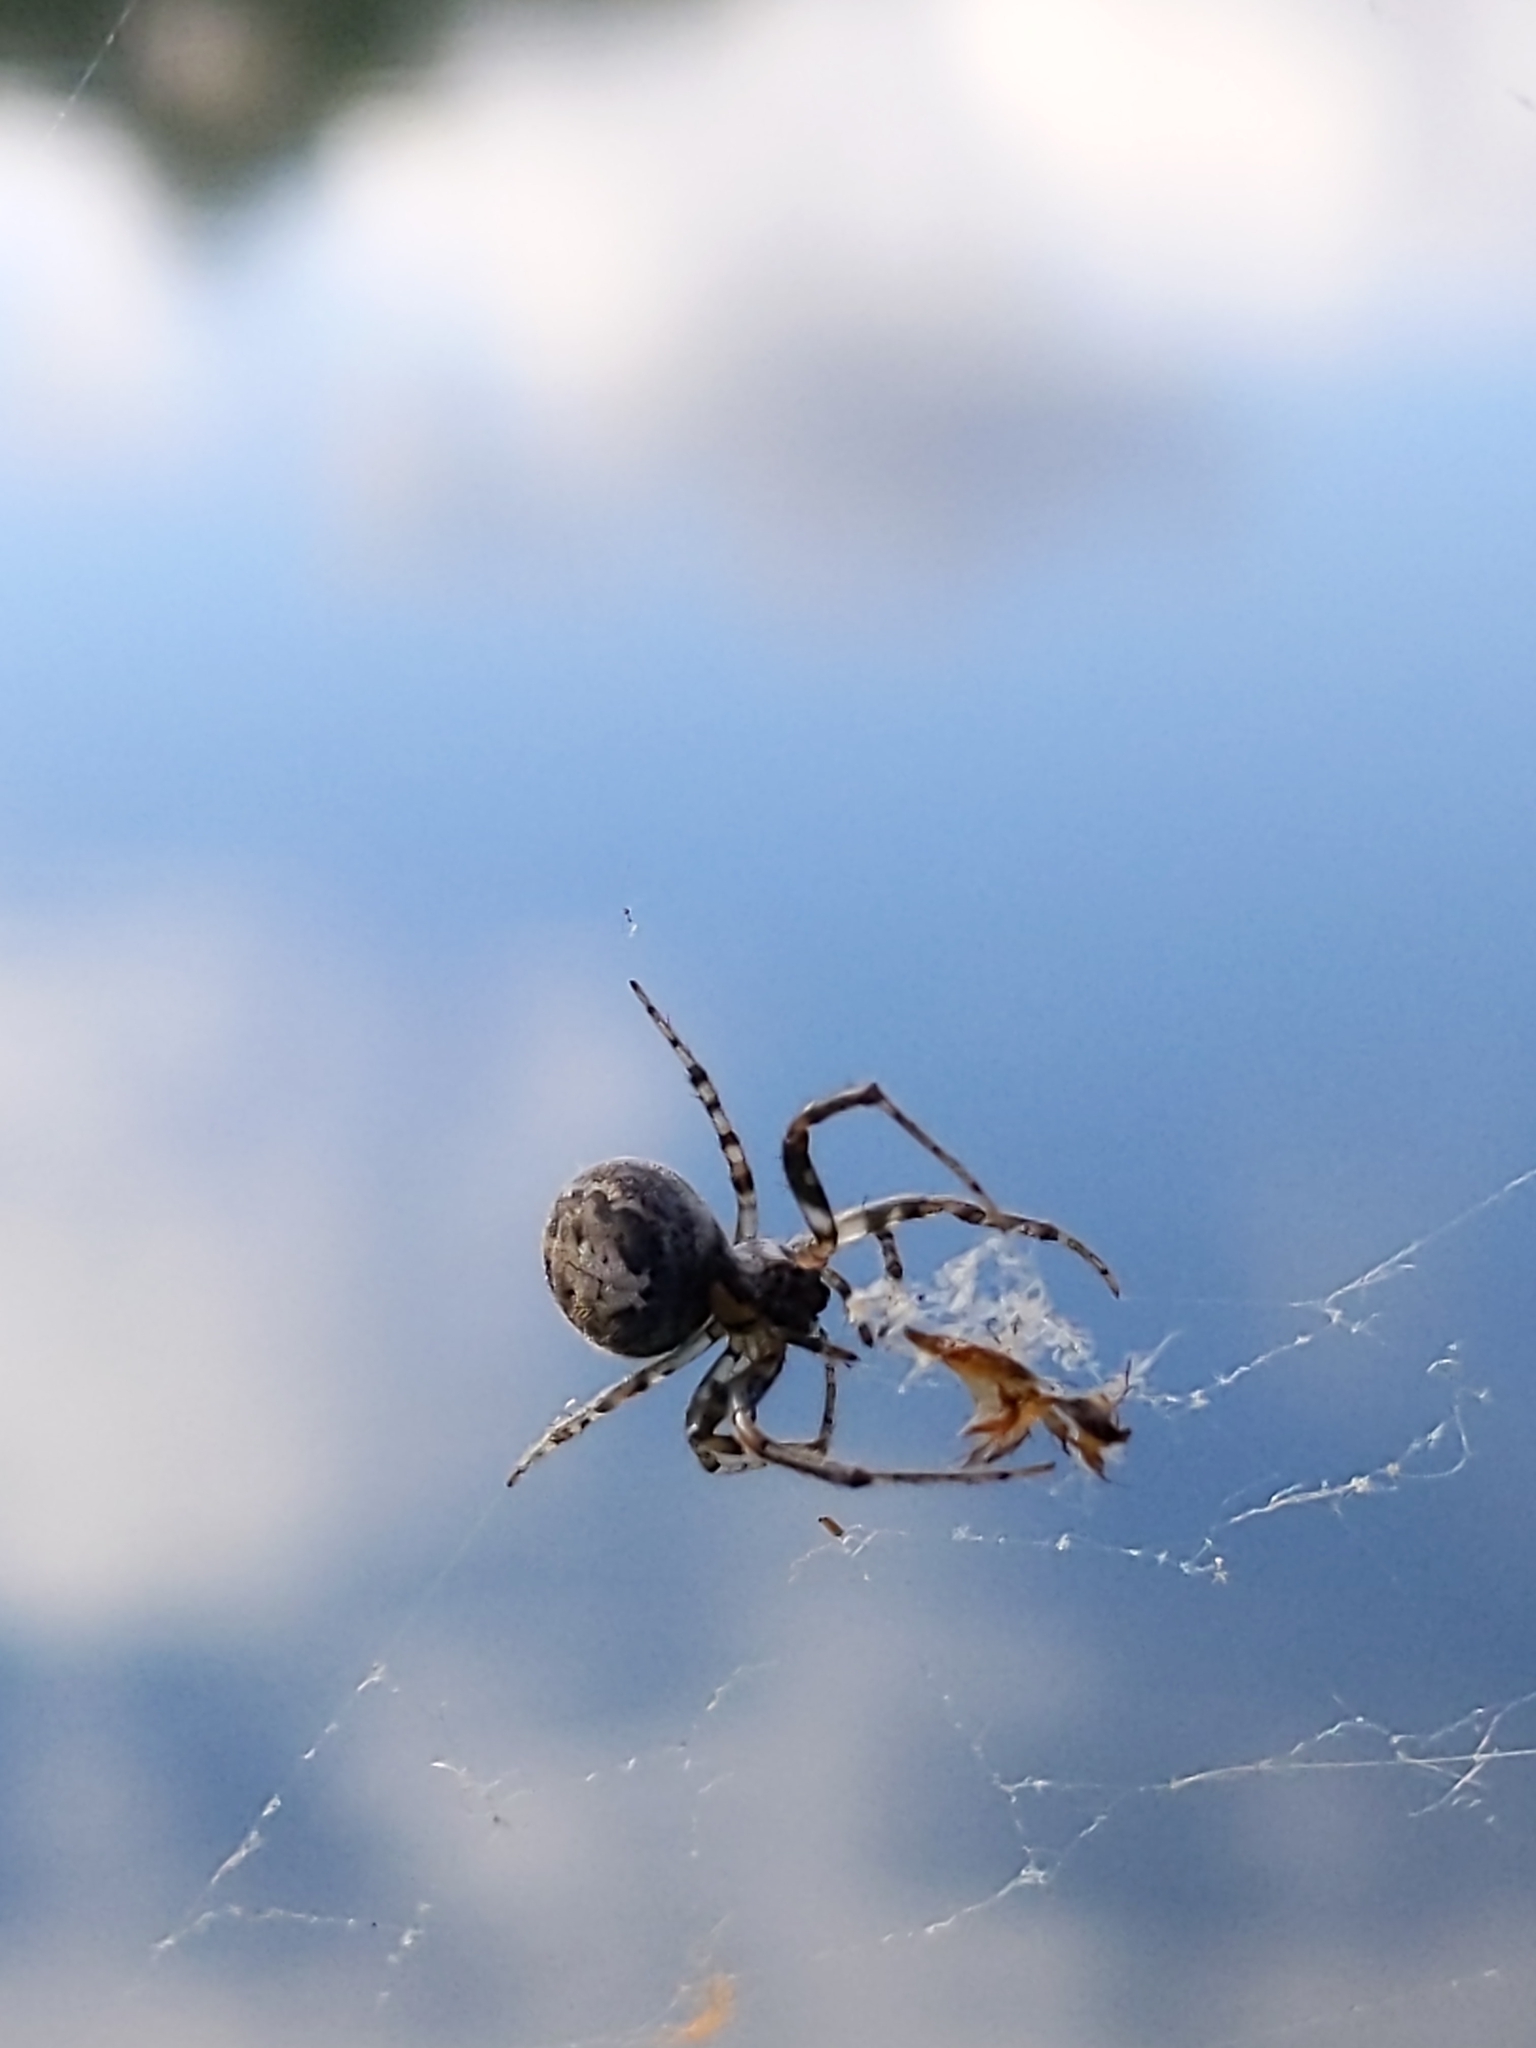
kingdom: Animalia
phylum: Arthropoda
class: Arachnida
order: Araneae
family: Araneidae
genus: Zygiella
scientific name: Zygiella x-notata
